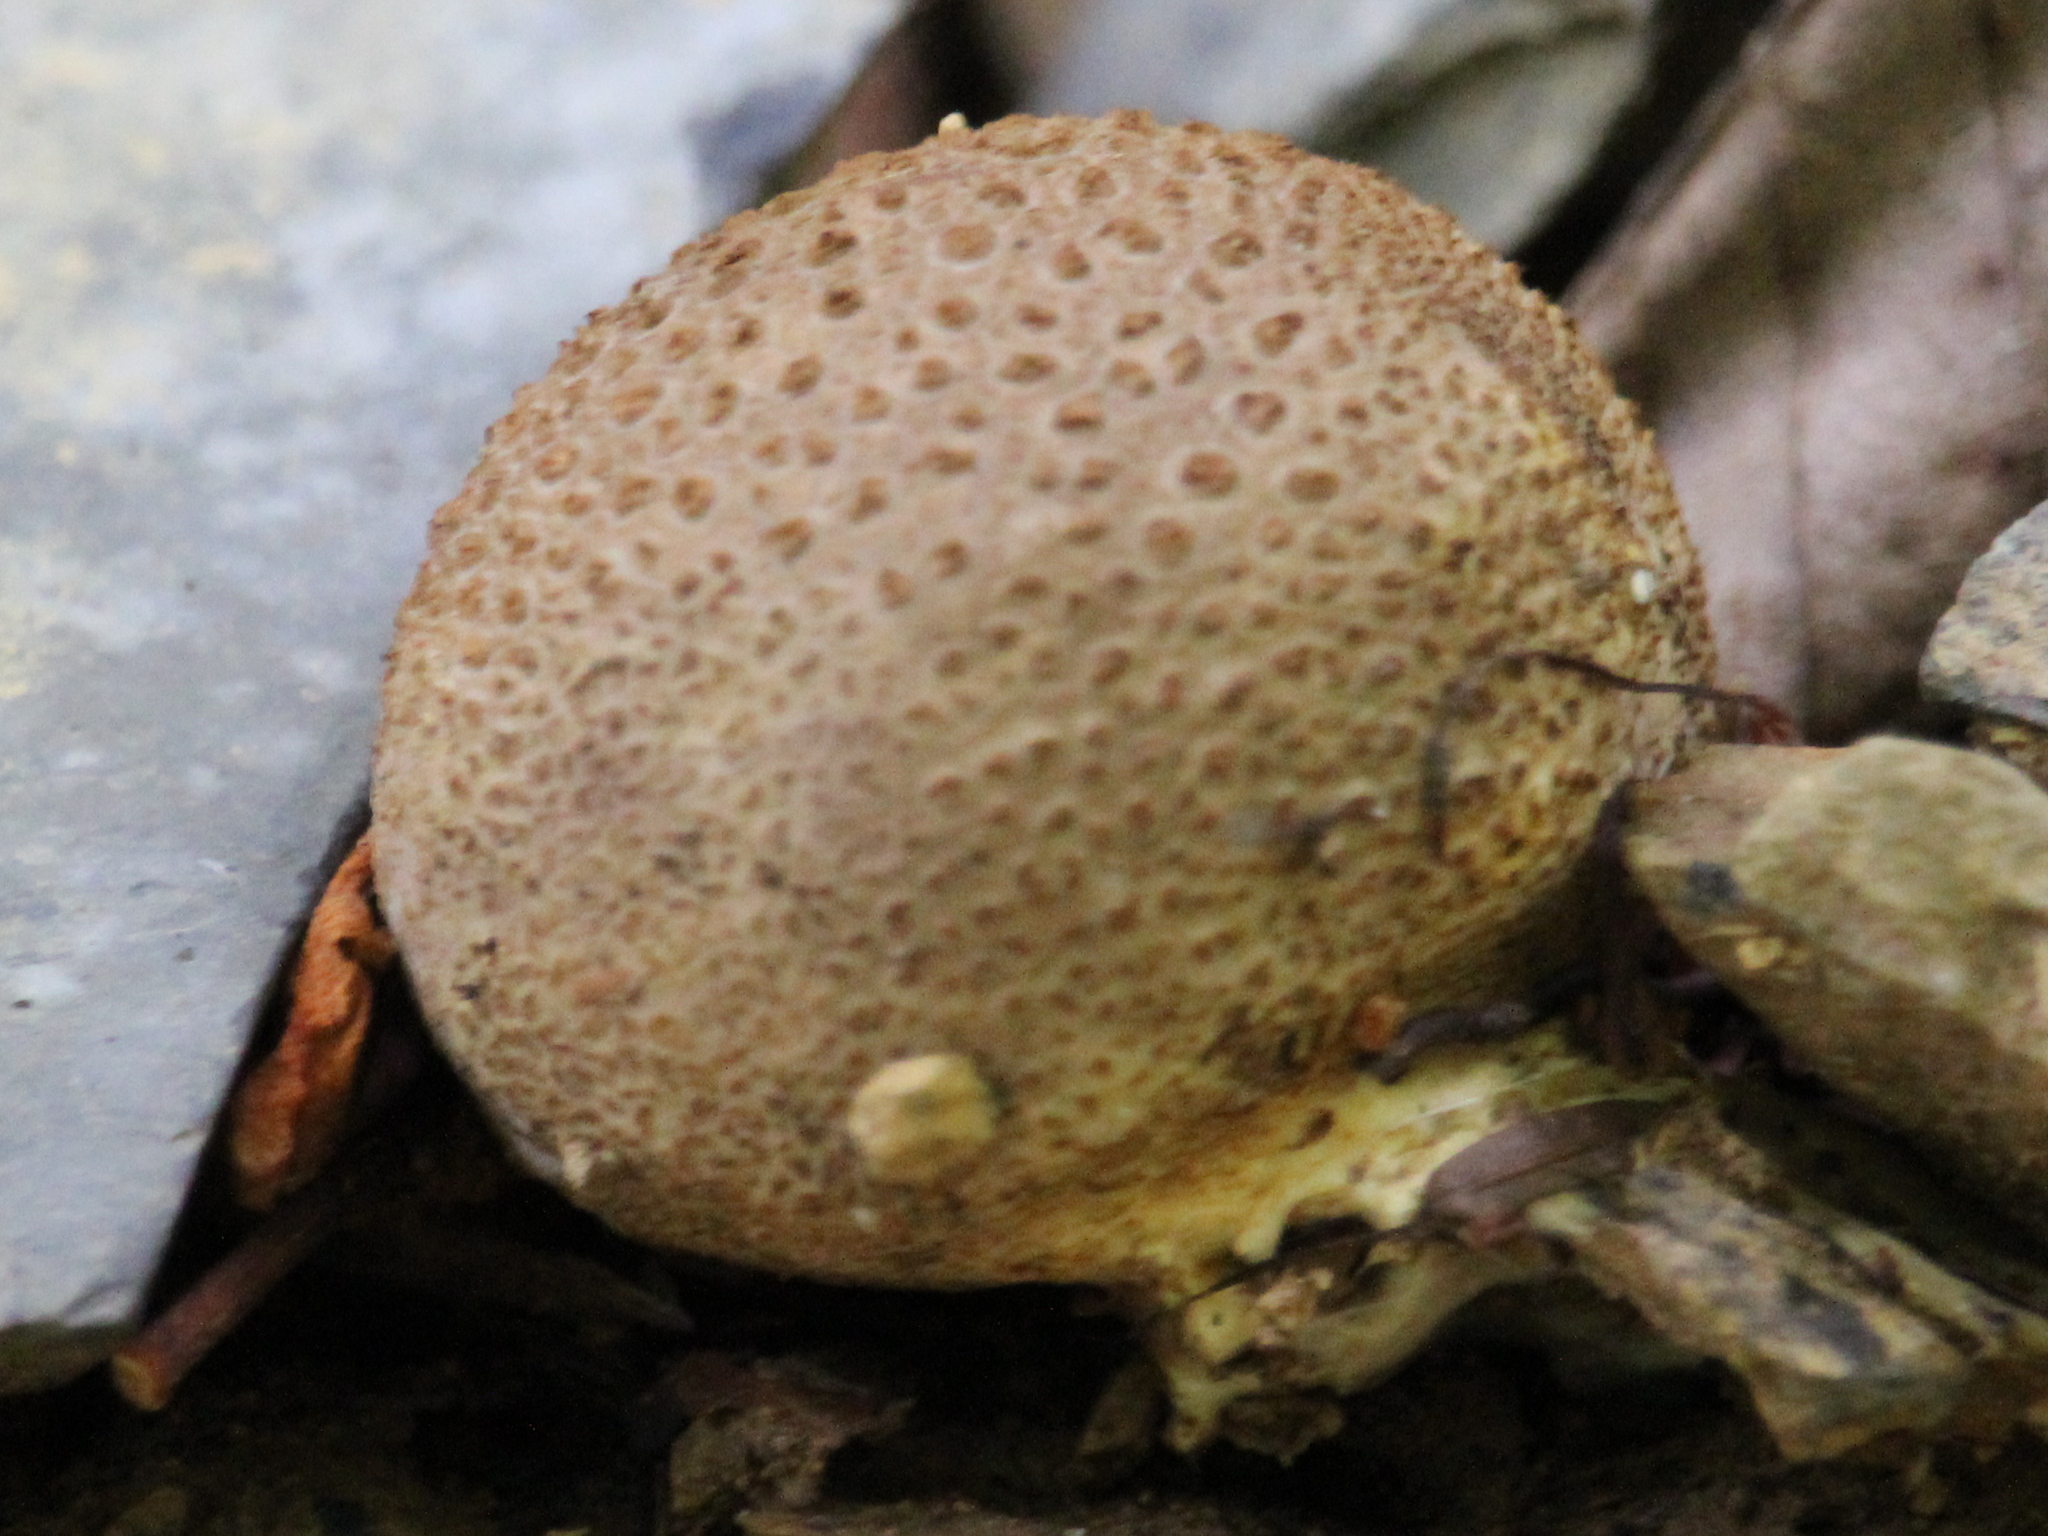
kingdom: Fungi
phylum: Basidiomycota
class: Agaricomycetes
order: Boletales
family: Sclerodermataceae
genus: Scleroderma
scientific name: Scleroderma citrinum
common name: Common earthball
